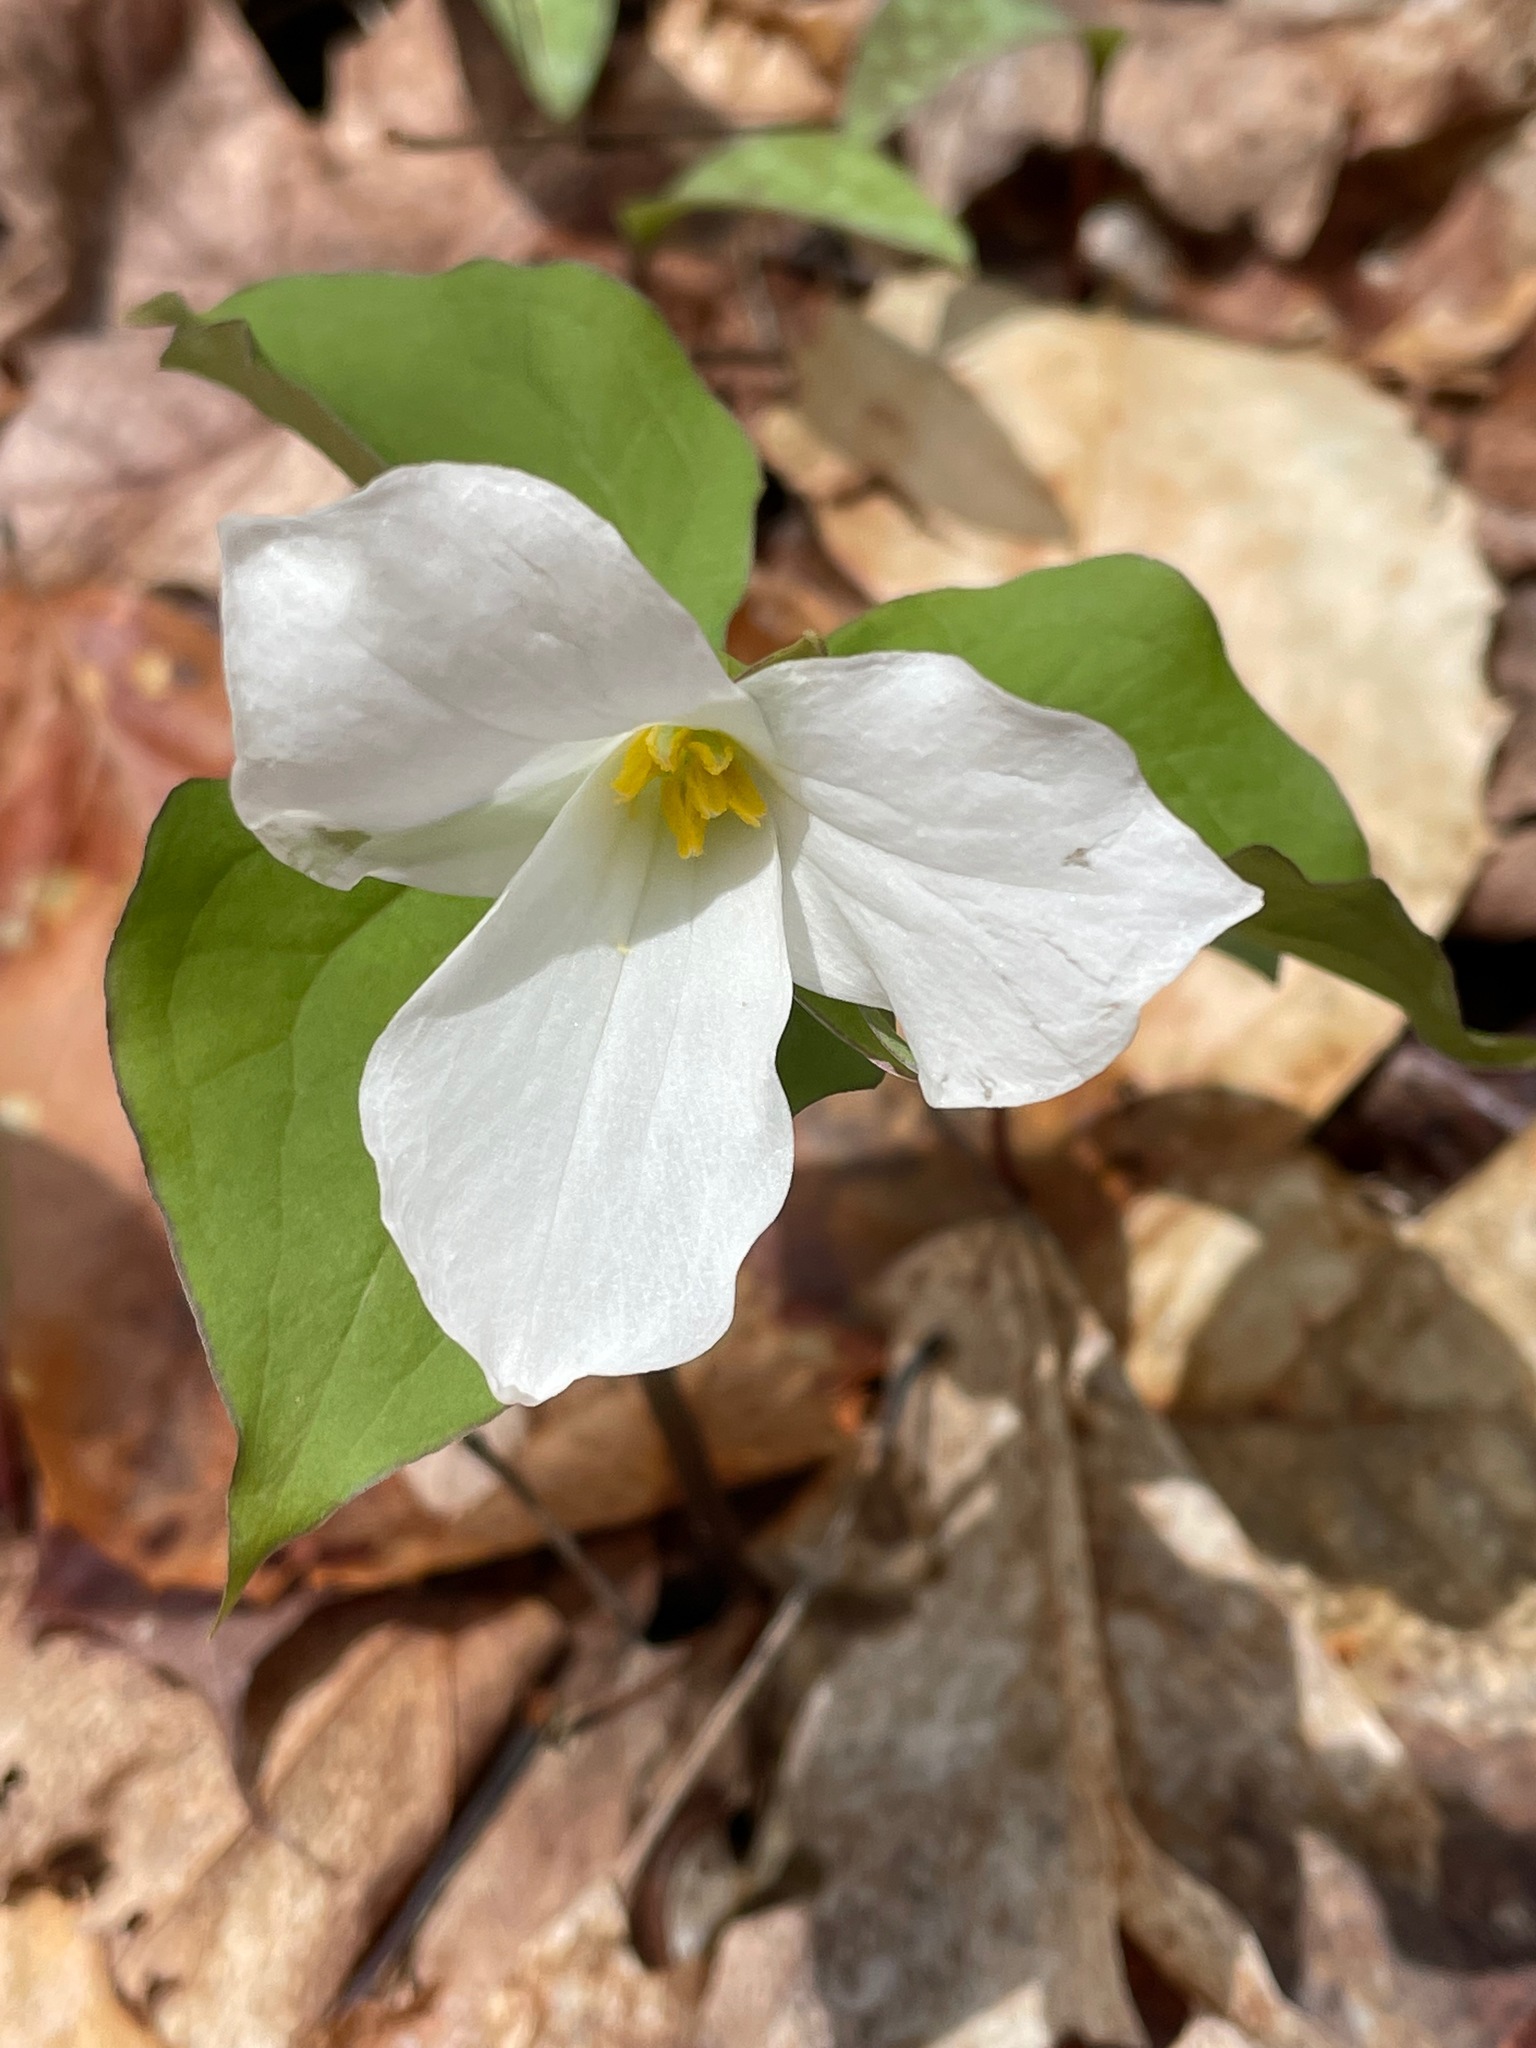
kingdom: Plantae
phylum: Tracheophyta
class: Liliopsida
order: Liliales
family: Melanthiaceae
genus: Trillium
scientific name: Trillium grandiflorum
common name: Great white trillium
